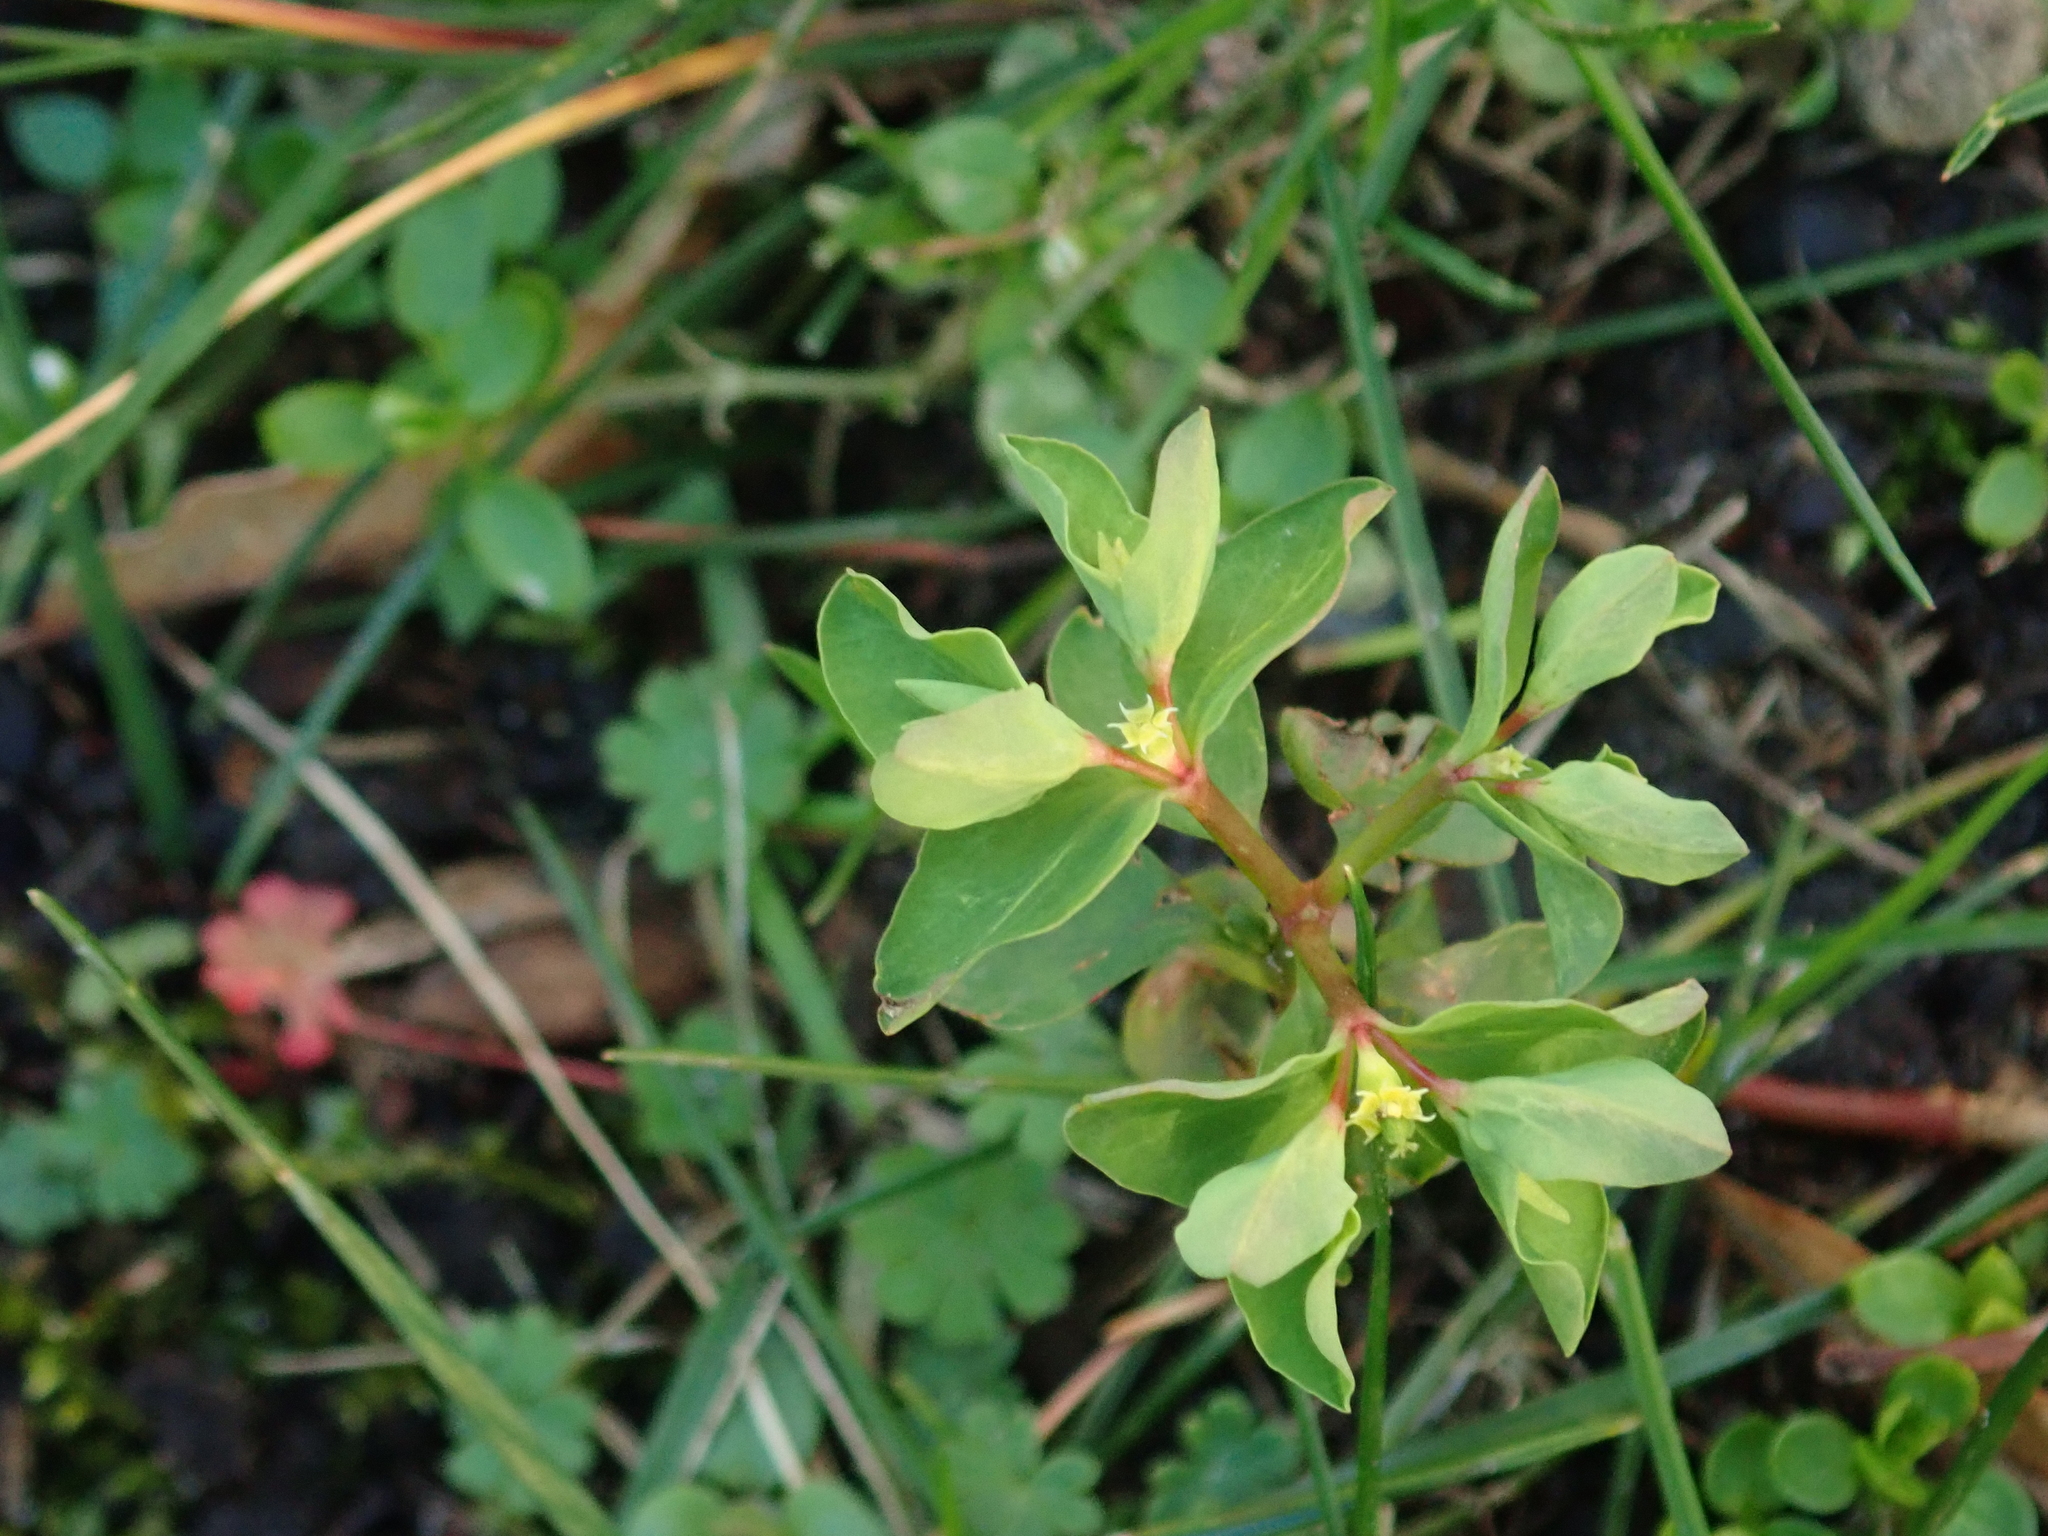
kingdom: Plantae
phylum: Tracheophyta
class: Magnoliopsida
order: Malpighiales
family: Euphorbiaceae
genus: Euphorbia
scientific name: Euphorbia peplus
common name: Petty spurge
